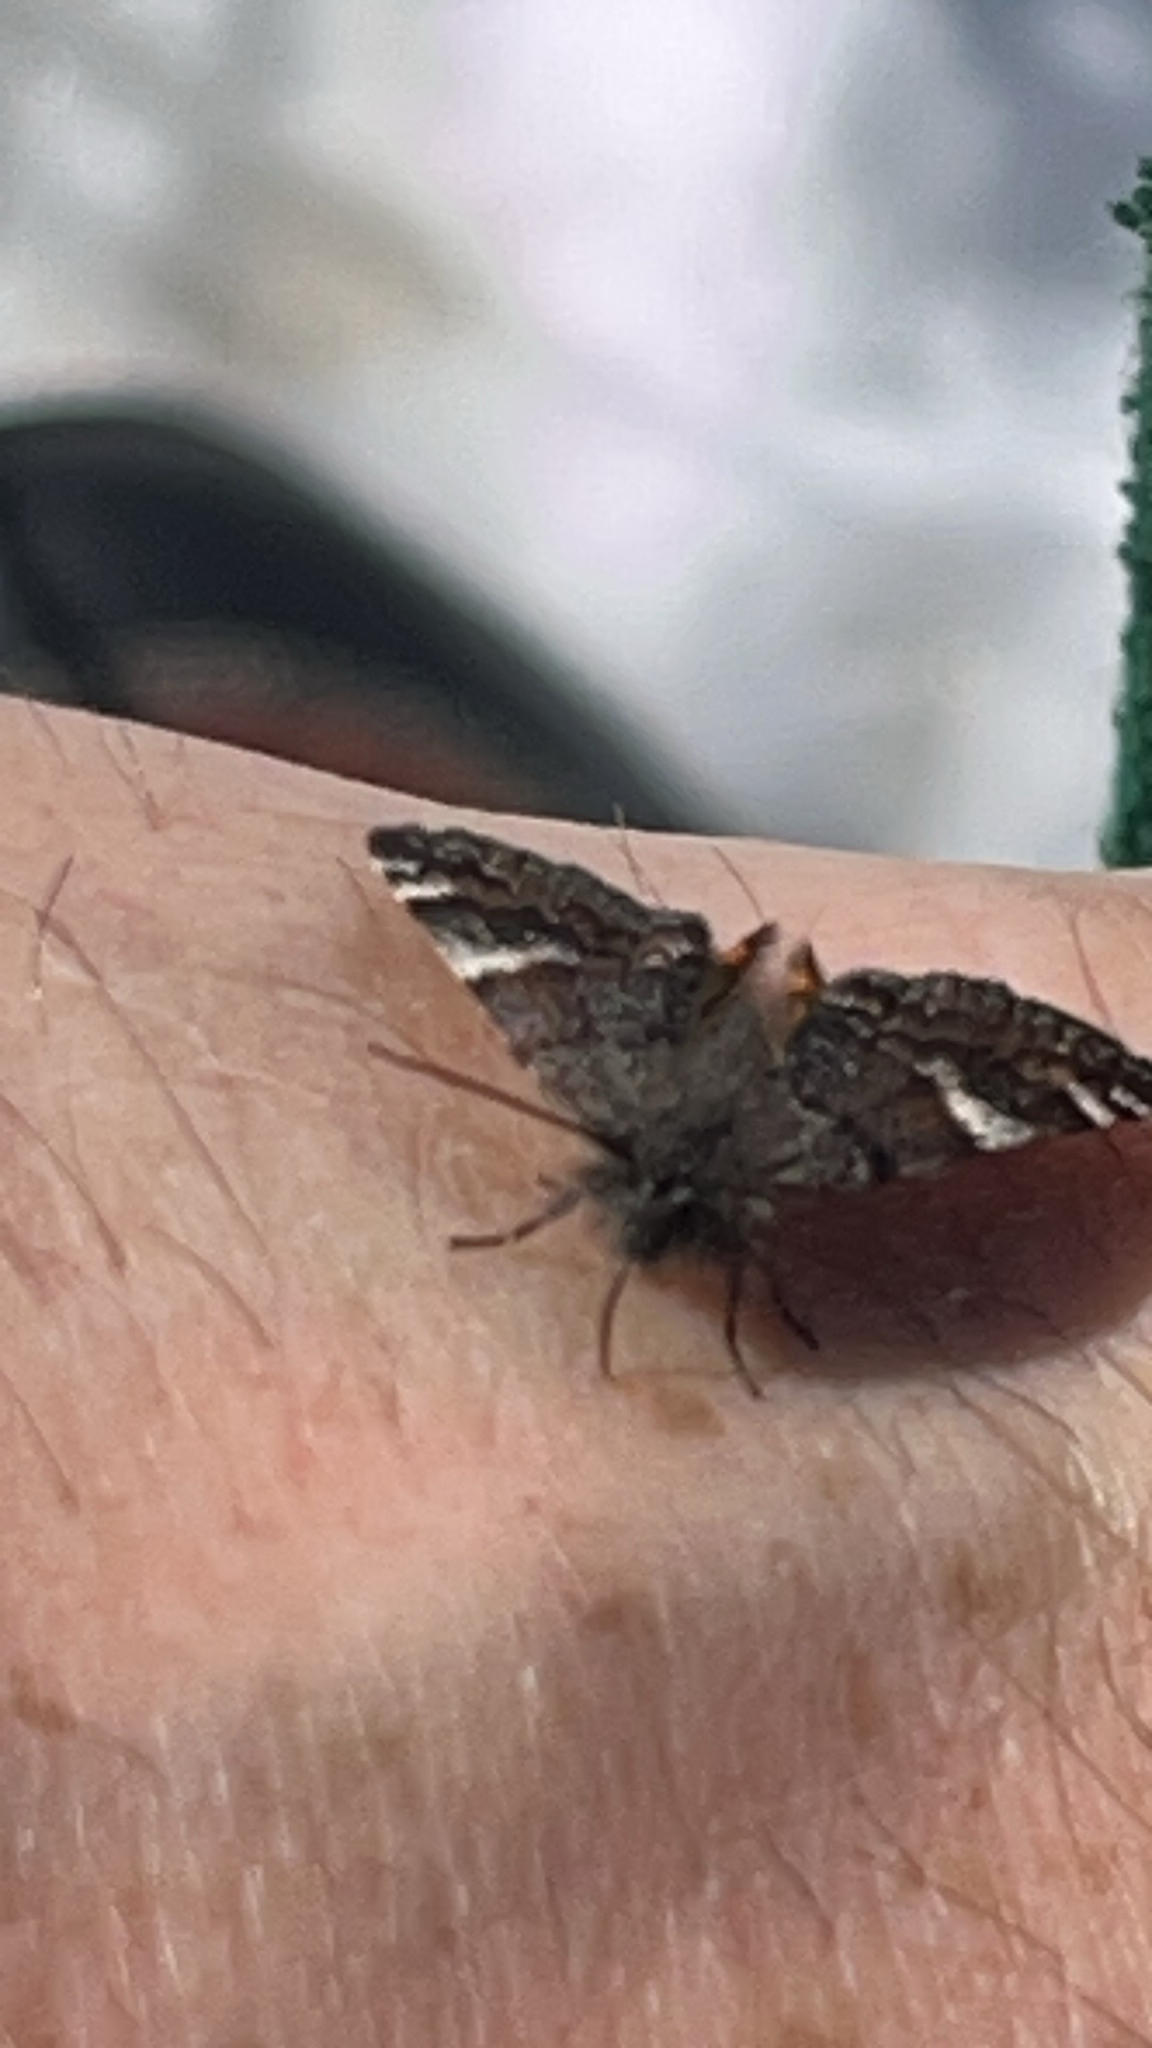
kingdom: Animalia
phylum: Arthropoda
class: Insecta
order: Lepidoptera
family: Geometridae
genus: Archiearis
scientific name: Archiearis infans
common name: First born geometer
